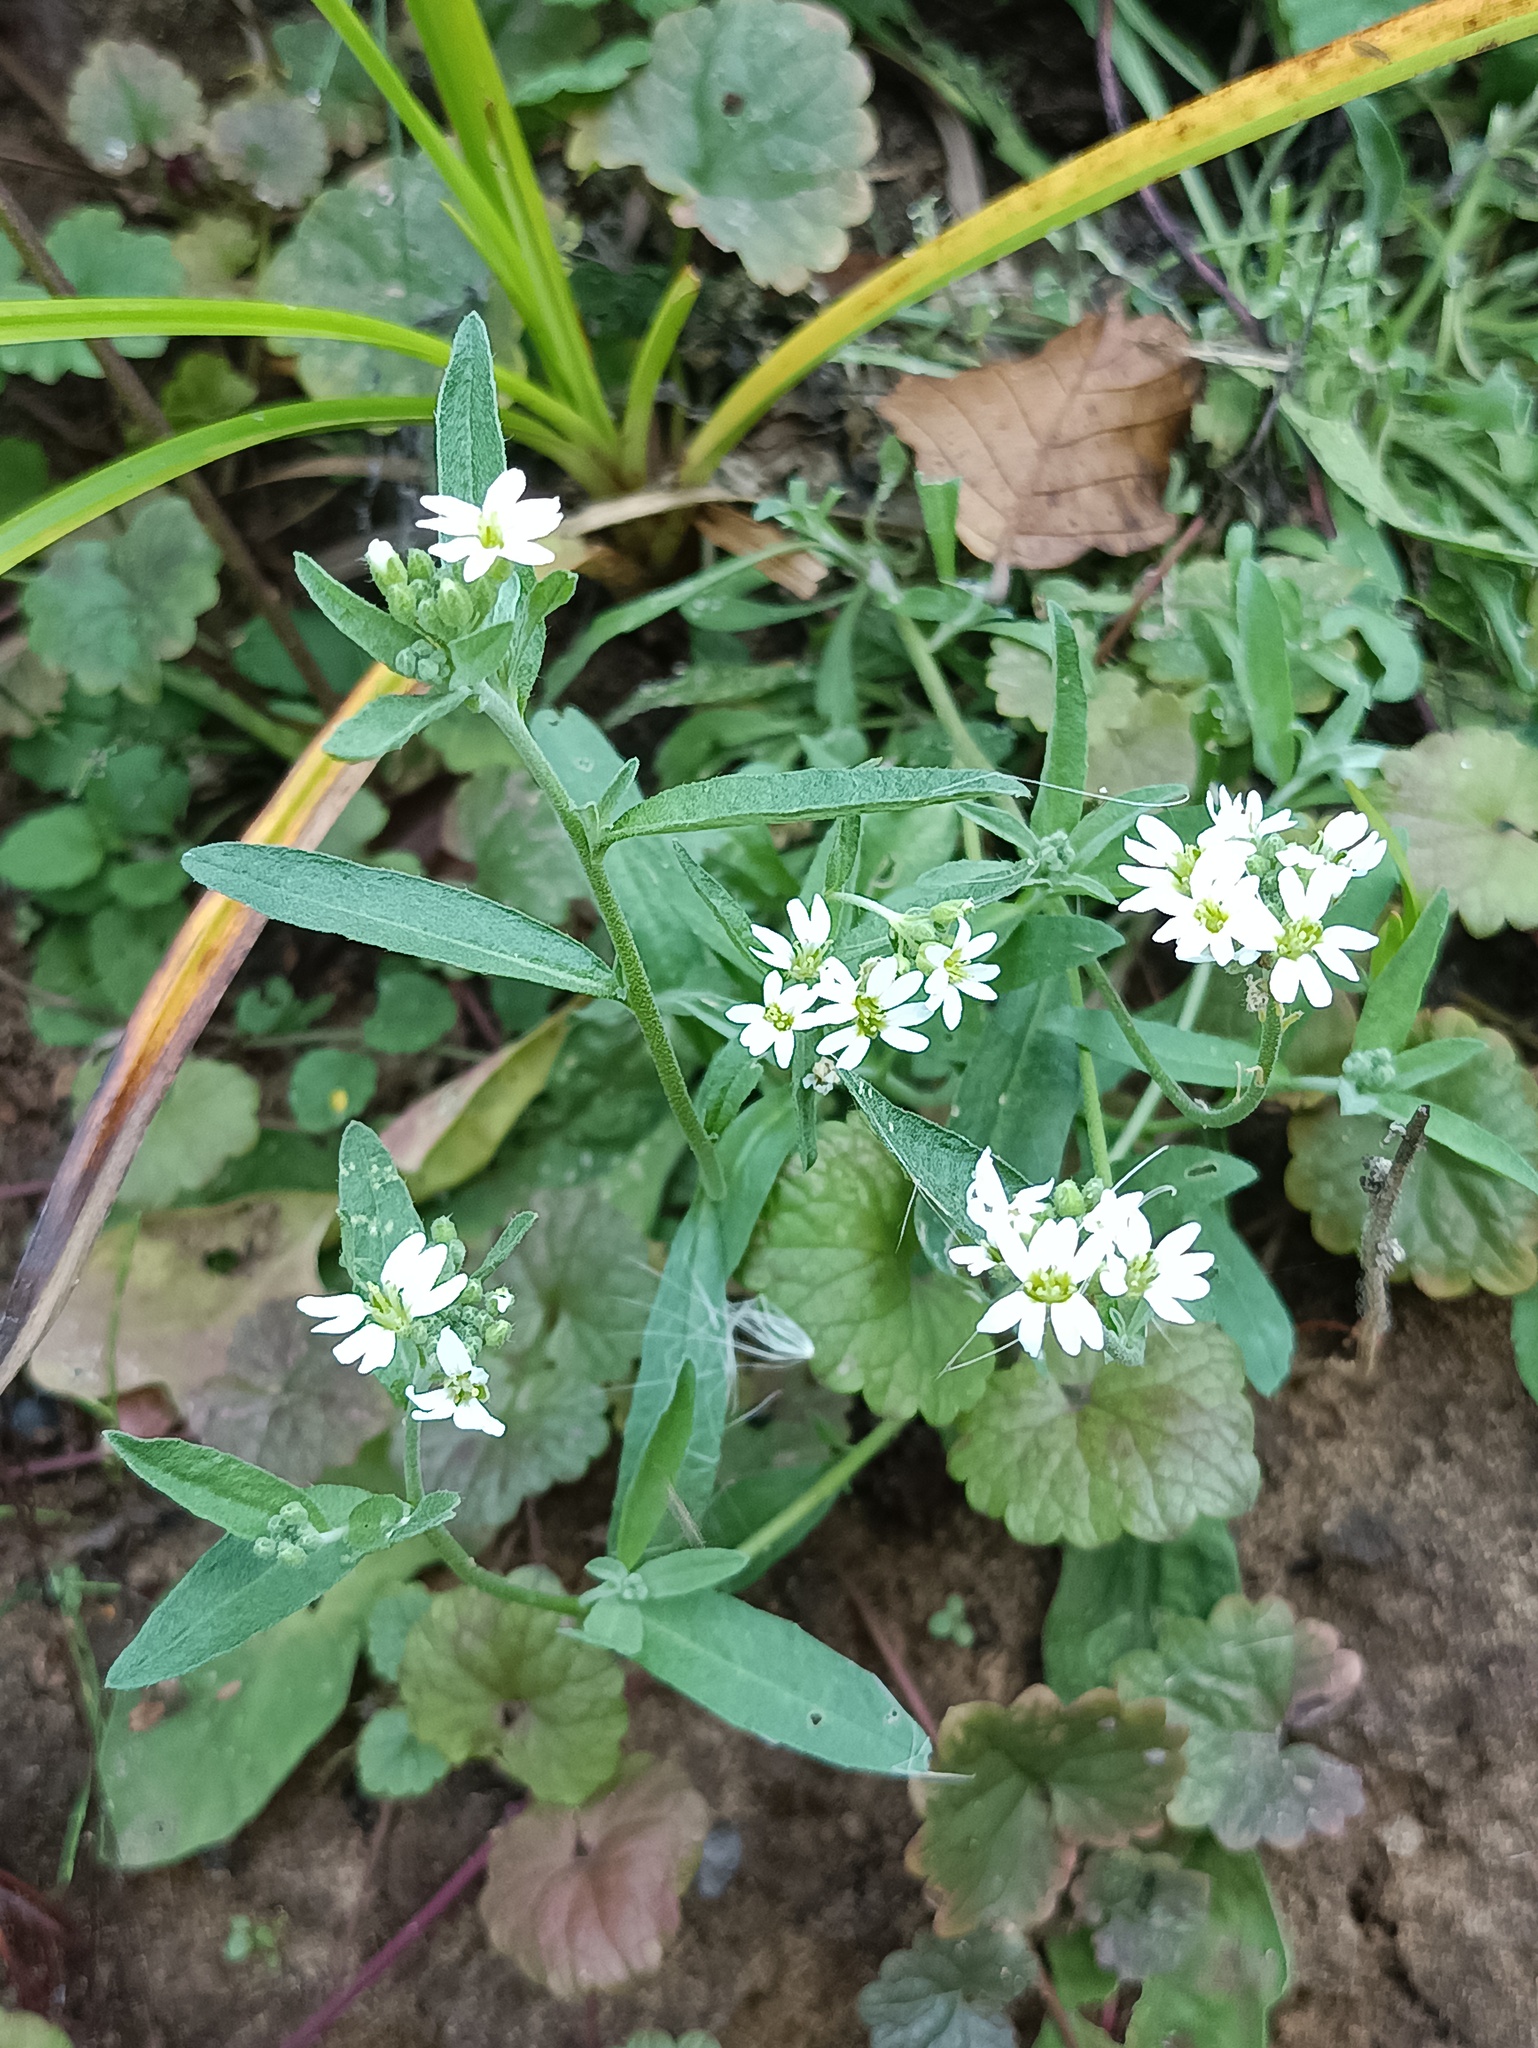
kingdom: Plantae
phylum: Tracheophyta
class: Magnoliopsida
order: Brassicales
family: Brassicaceae
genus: Berteroa
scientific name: Berteroa incana
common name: Hoary alison
